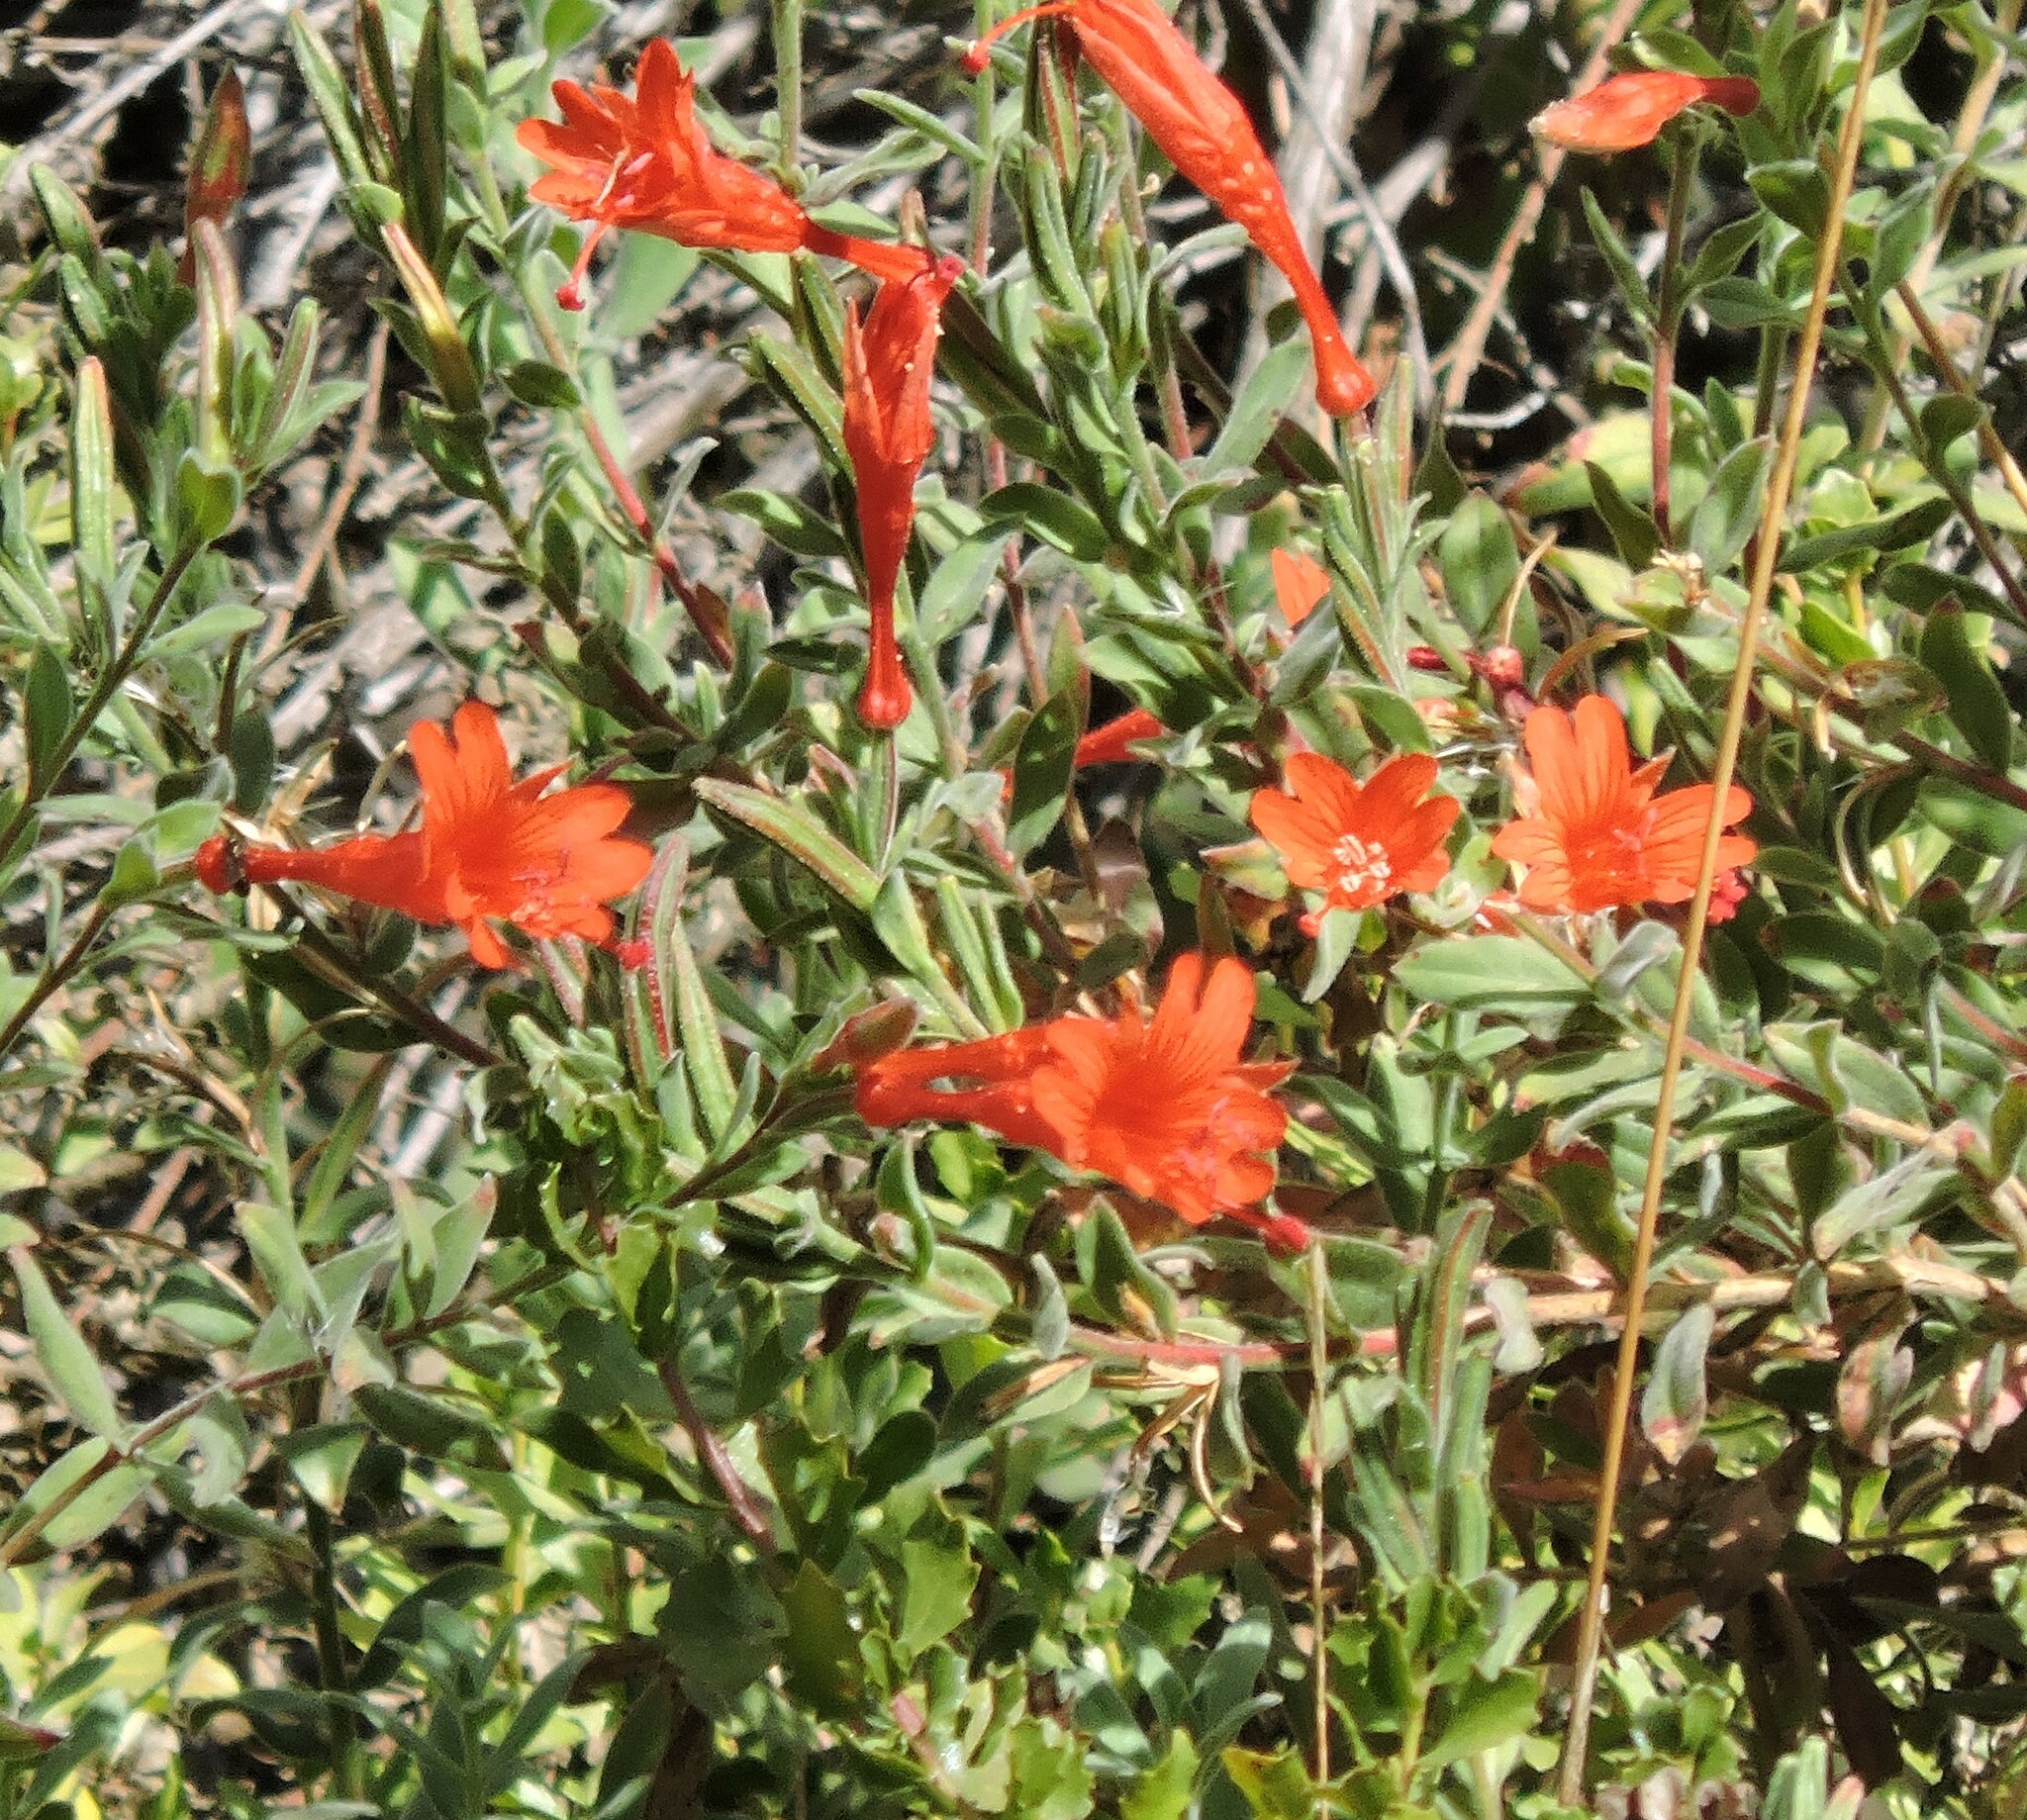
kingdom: Plantae
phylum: Tracheophyta
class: Magnoliopsida
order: Myrtales
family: Onagraceae
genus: Epilobium
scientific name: Epilobium canum
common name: California-fuchsia
